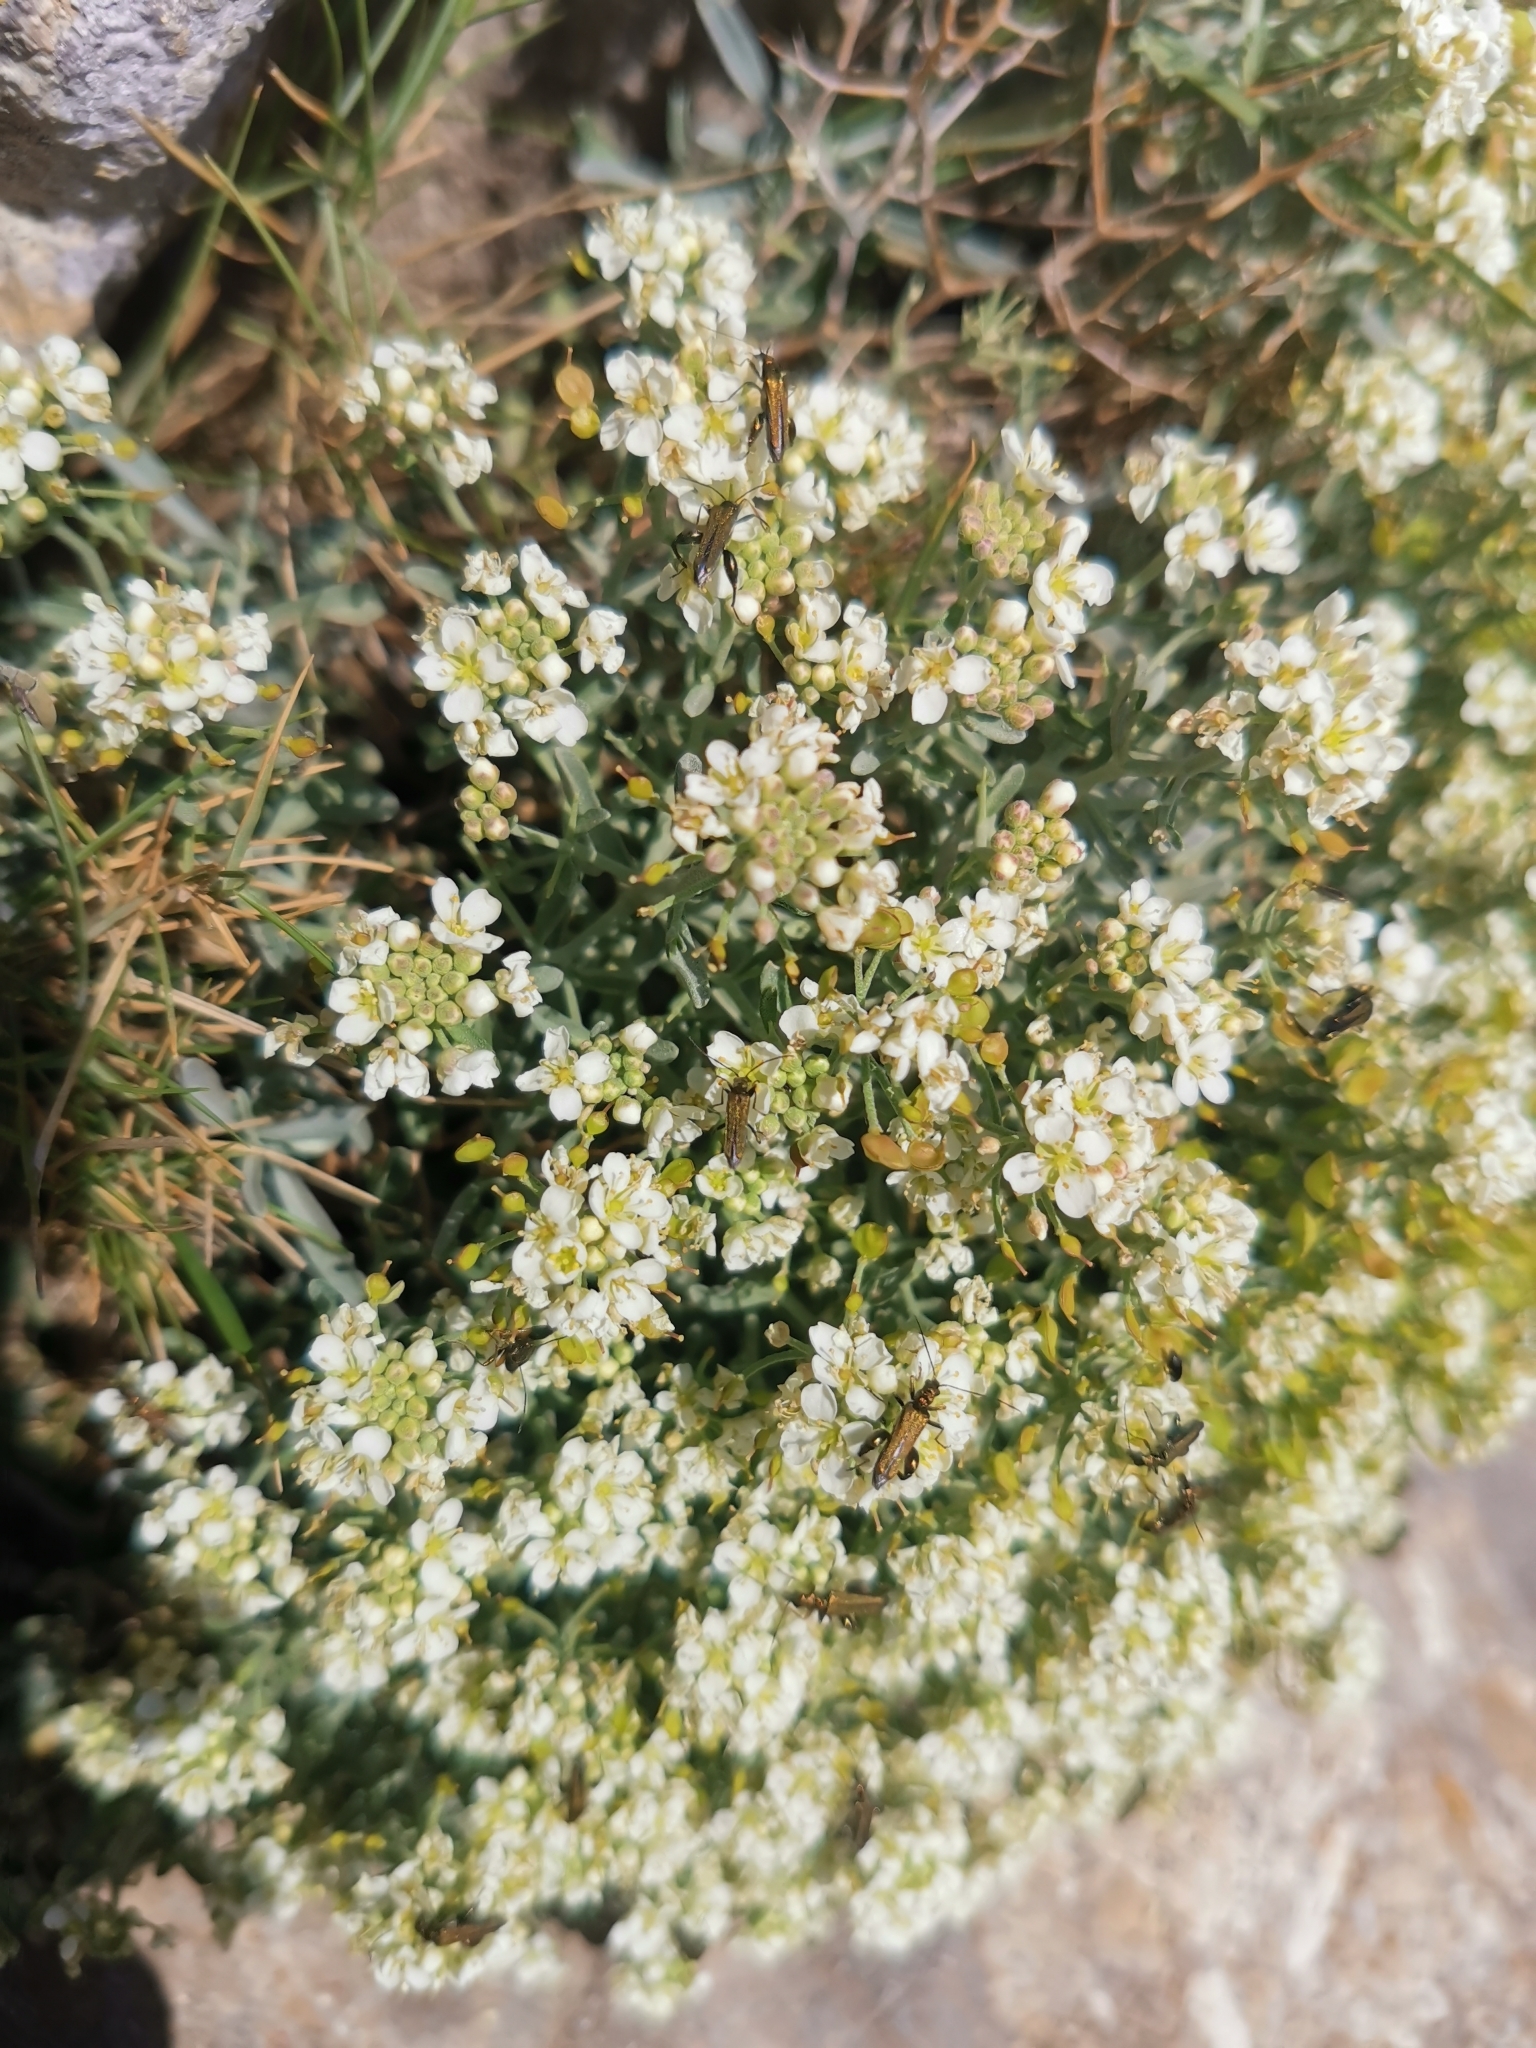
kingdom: Plantae
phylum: Tracheophyta
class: Magnoliopsida
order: Brassicales
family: Brassicaceae
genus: Lobularia
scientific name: Lobularia maritima
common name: Sweet alison
